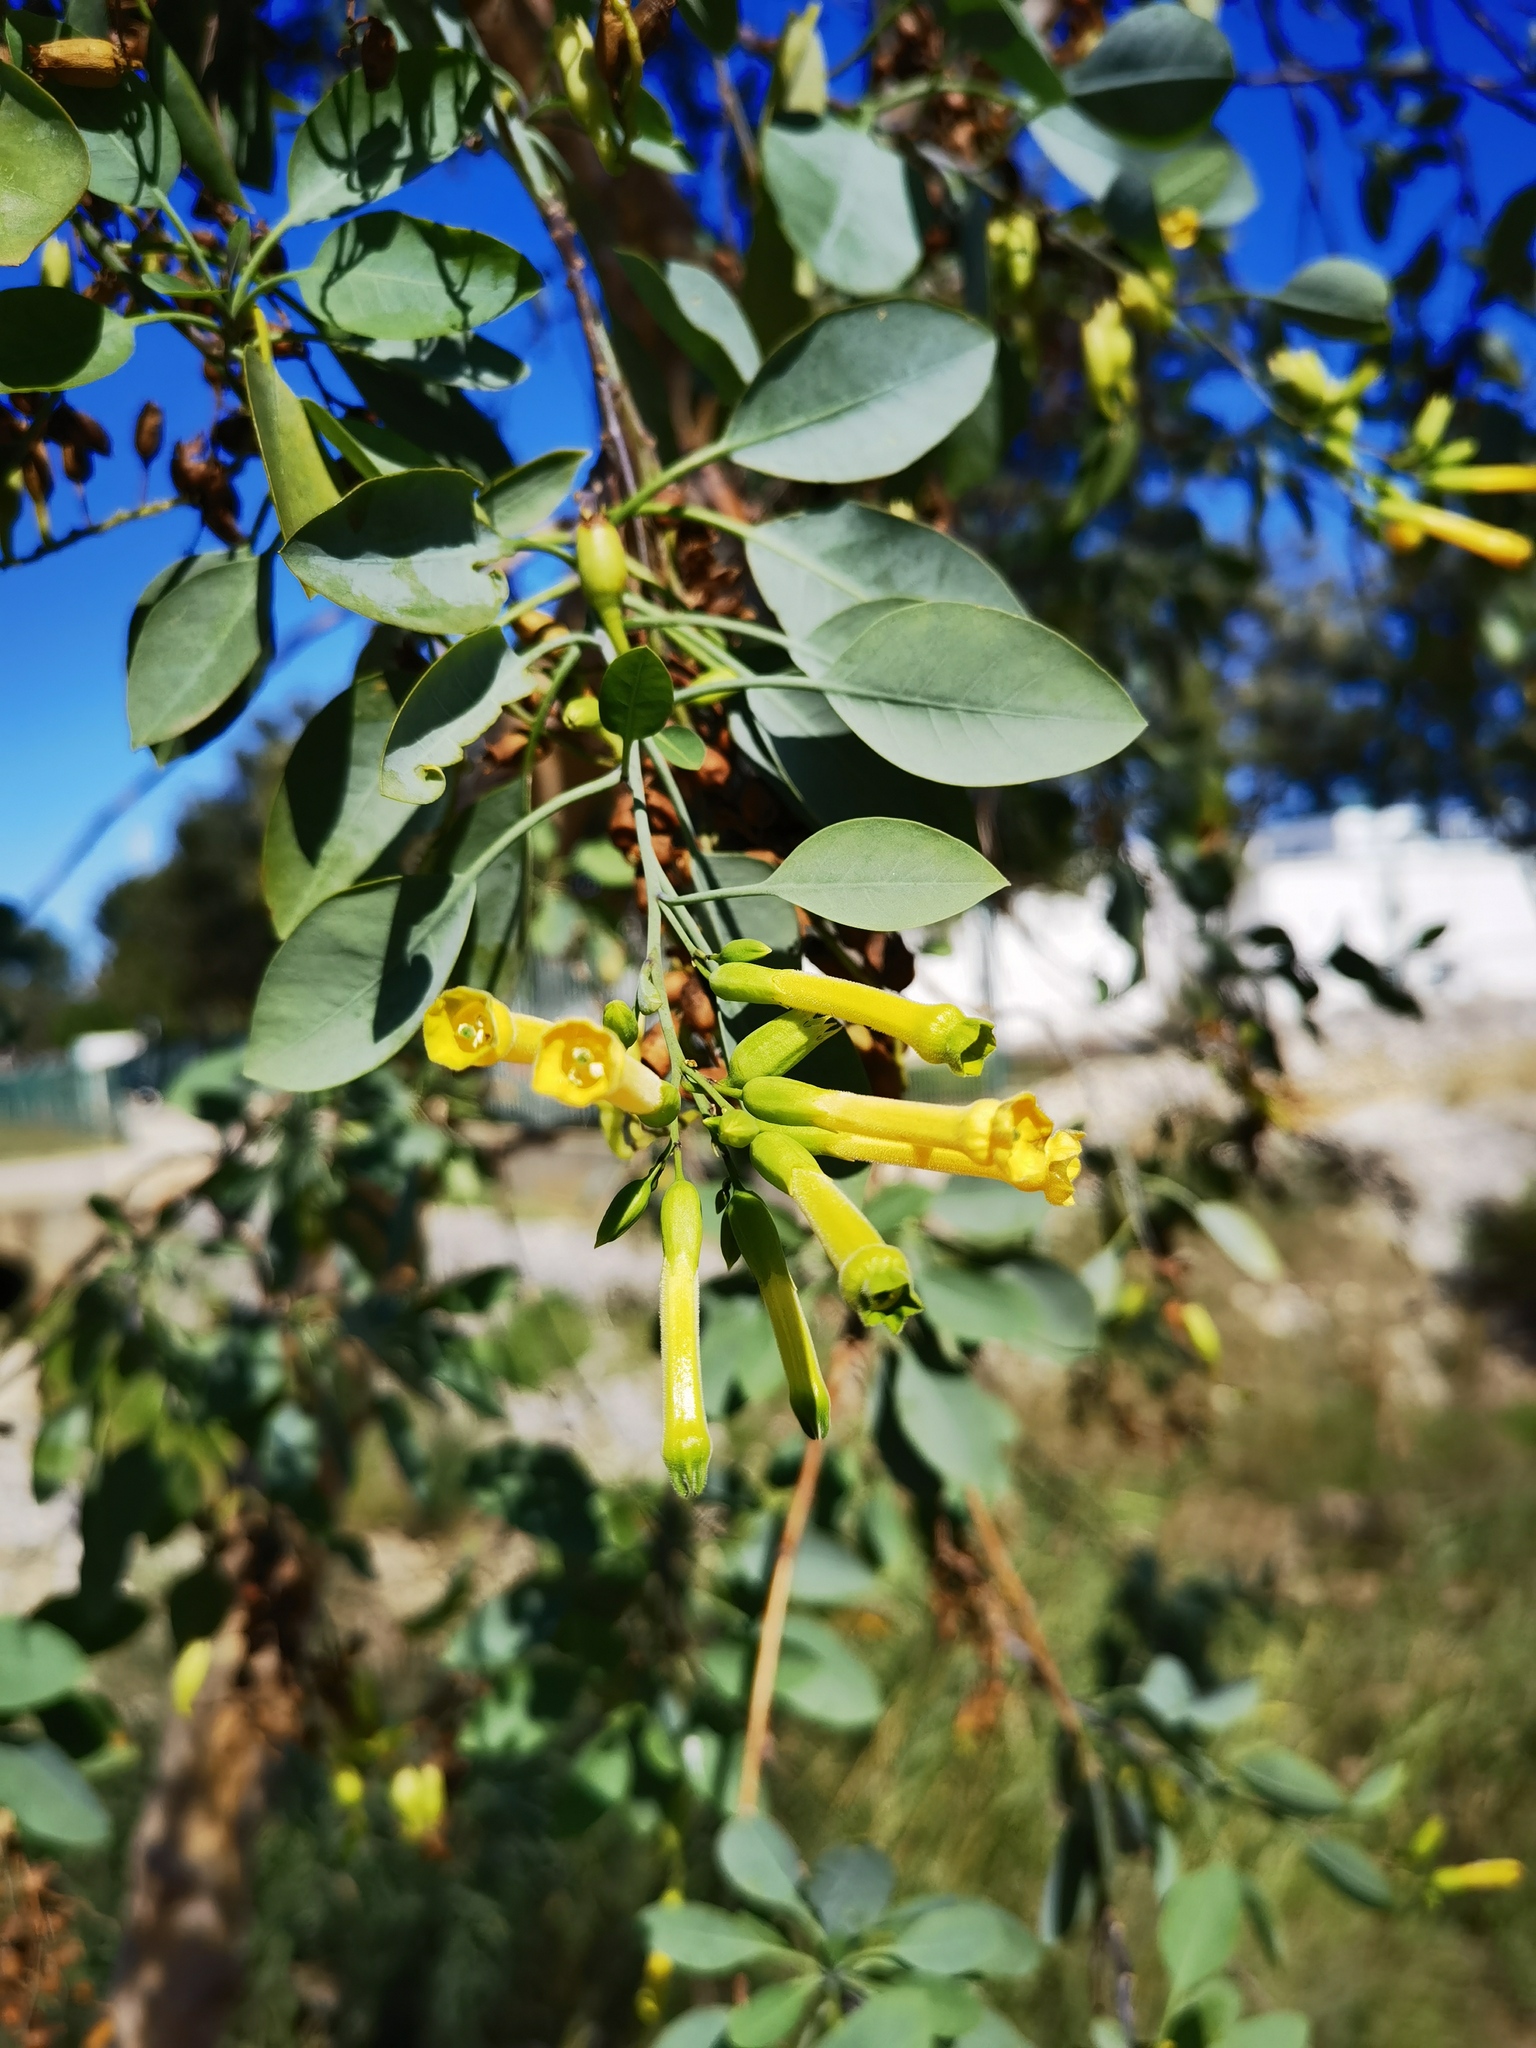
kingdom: Plantae
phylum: Tracheophyta
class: Magnoliopsida
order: Solanales
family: Solanaceae
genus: Nicotiana
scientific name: Nicotiana glauca
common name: Tree tobacco
